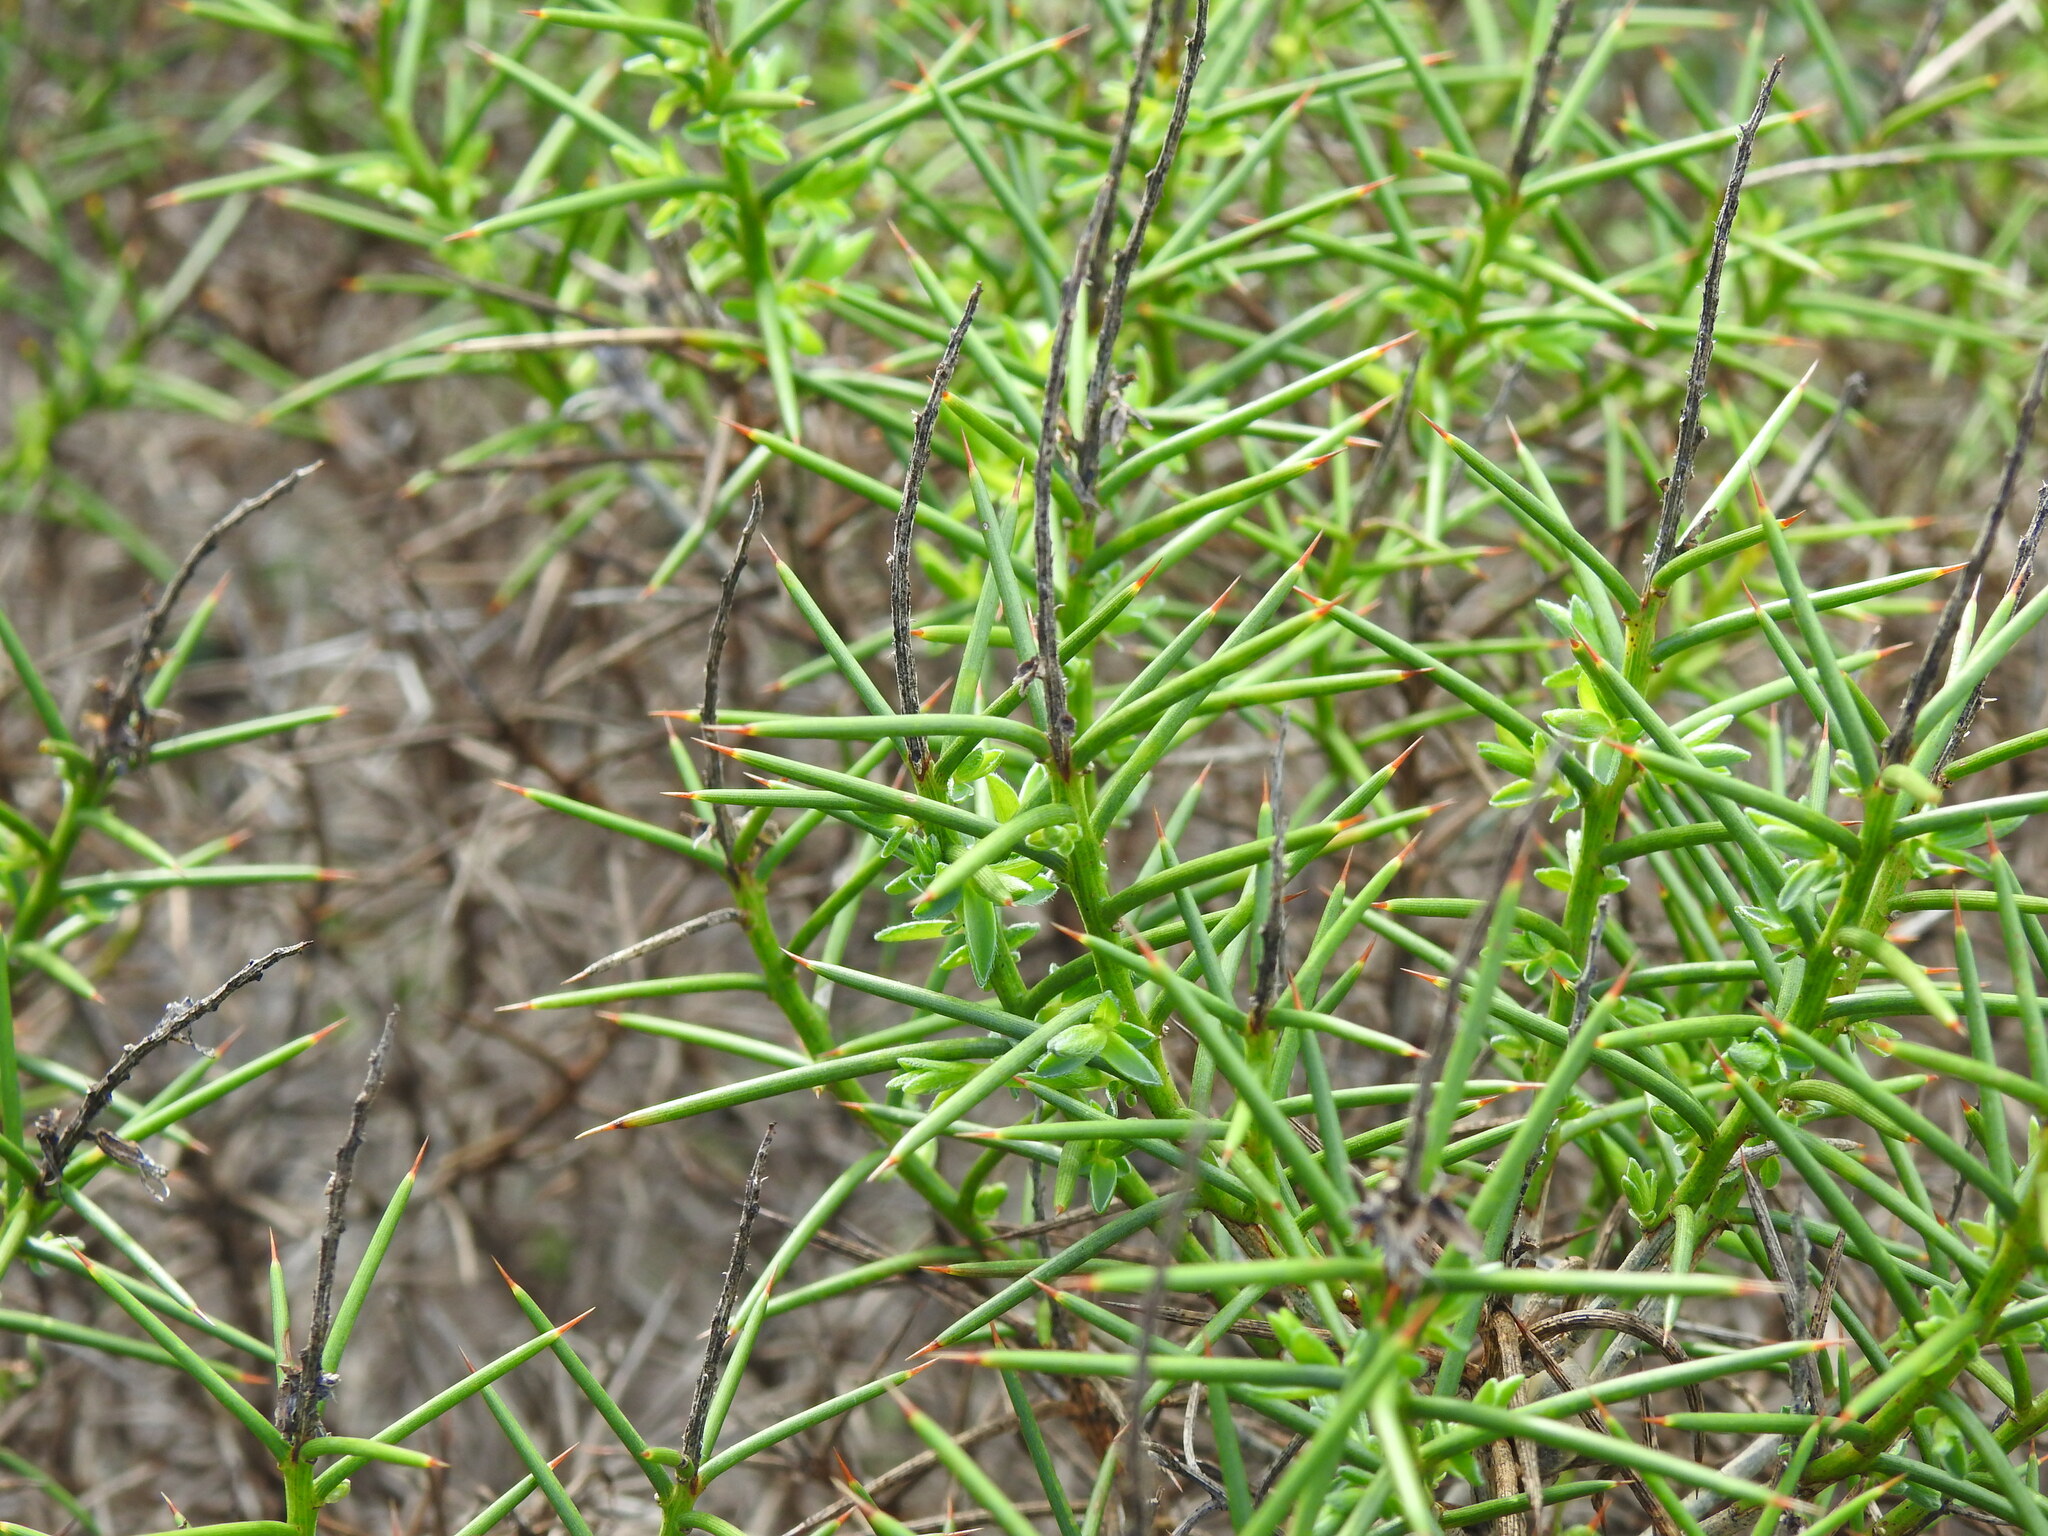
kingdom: Plantae
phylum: Tracheophyta
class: Magnoliopsida
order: Fabales
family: Fabaceae
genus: Genista
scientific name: Genista hirsuta
